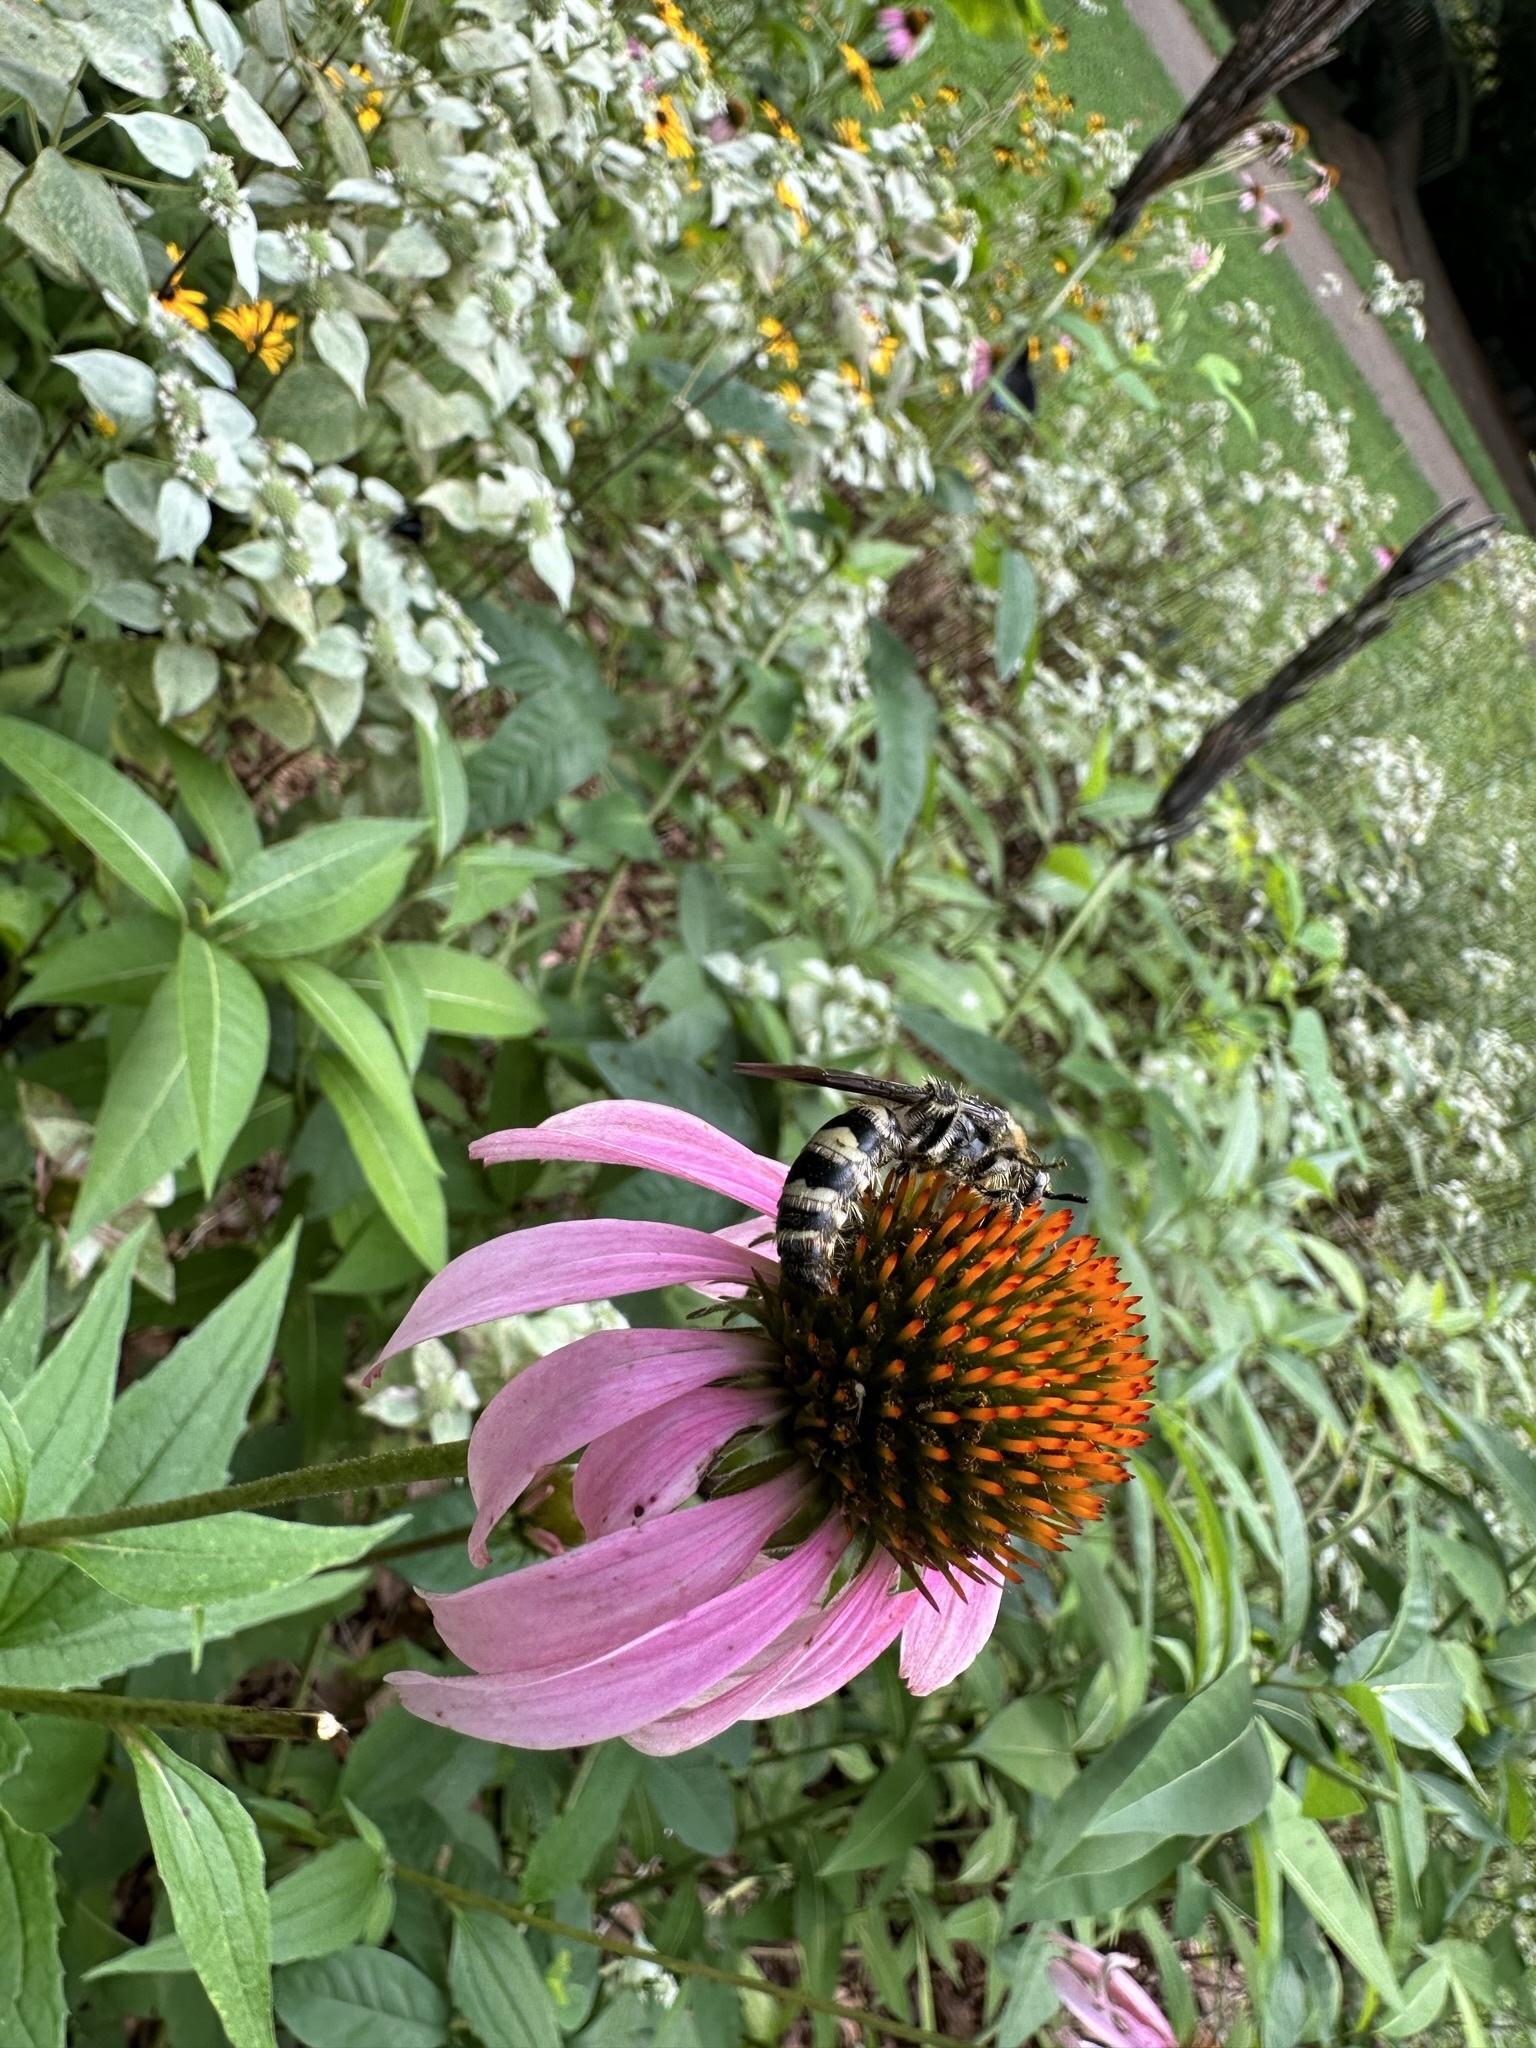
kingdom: Animalia
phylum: Arthropoda
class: Insecta
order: Hymenoptera
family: Scoliidae
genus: Dielis
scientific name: Dielis
